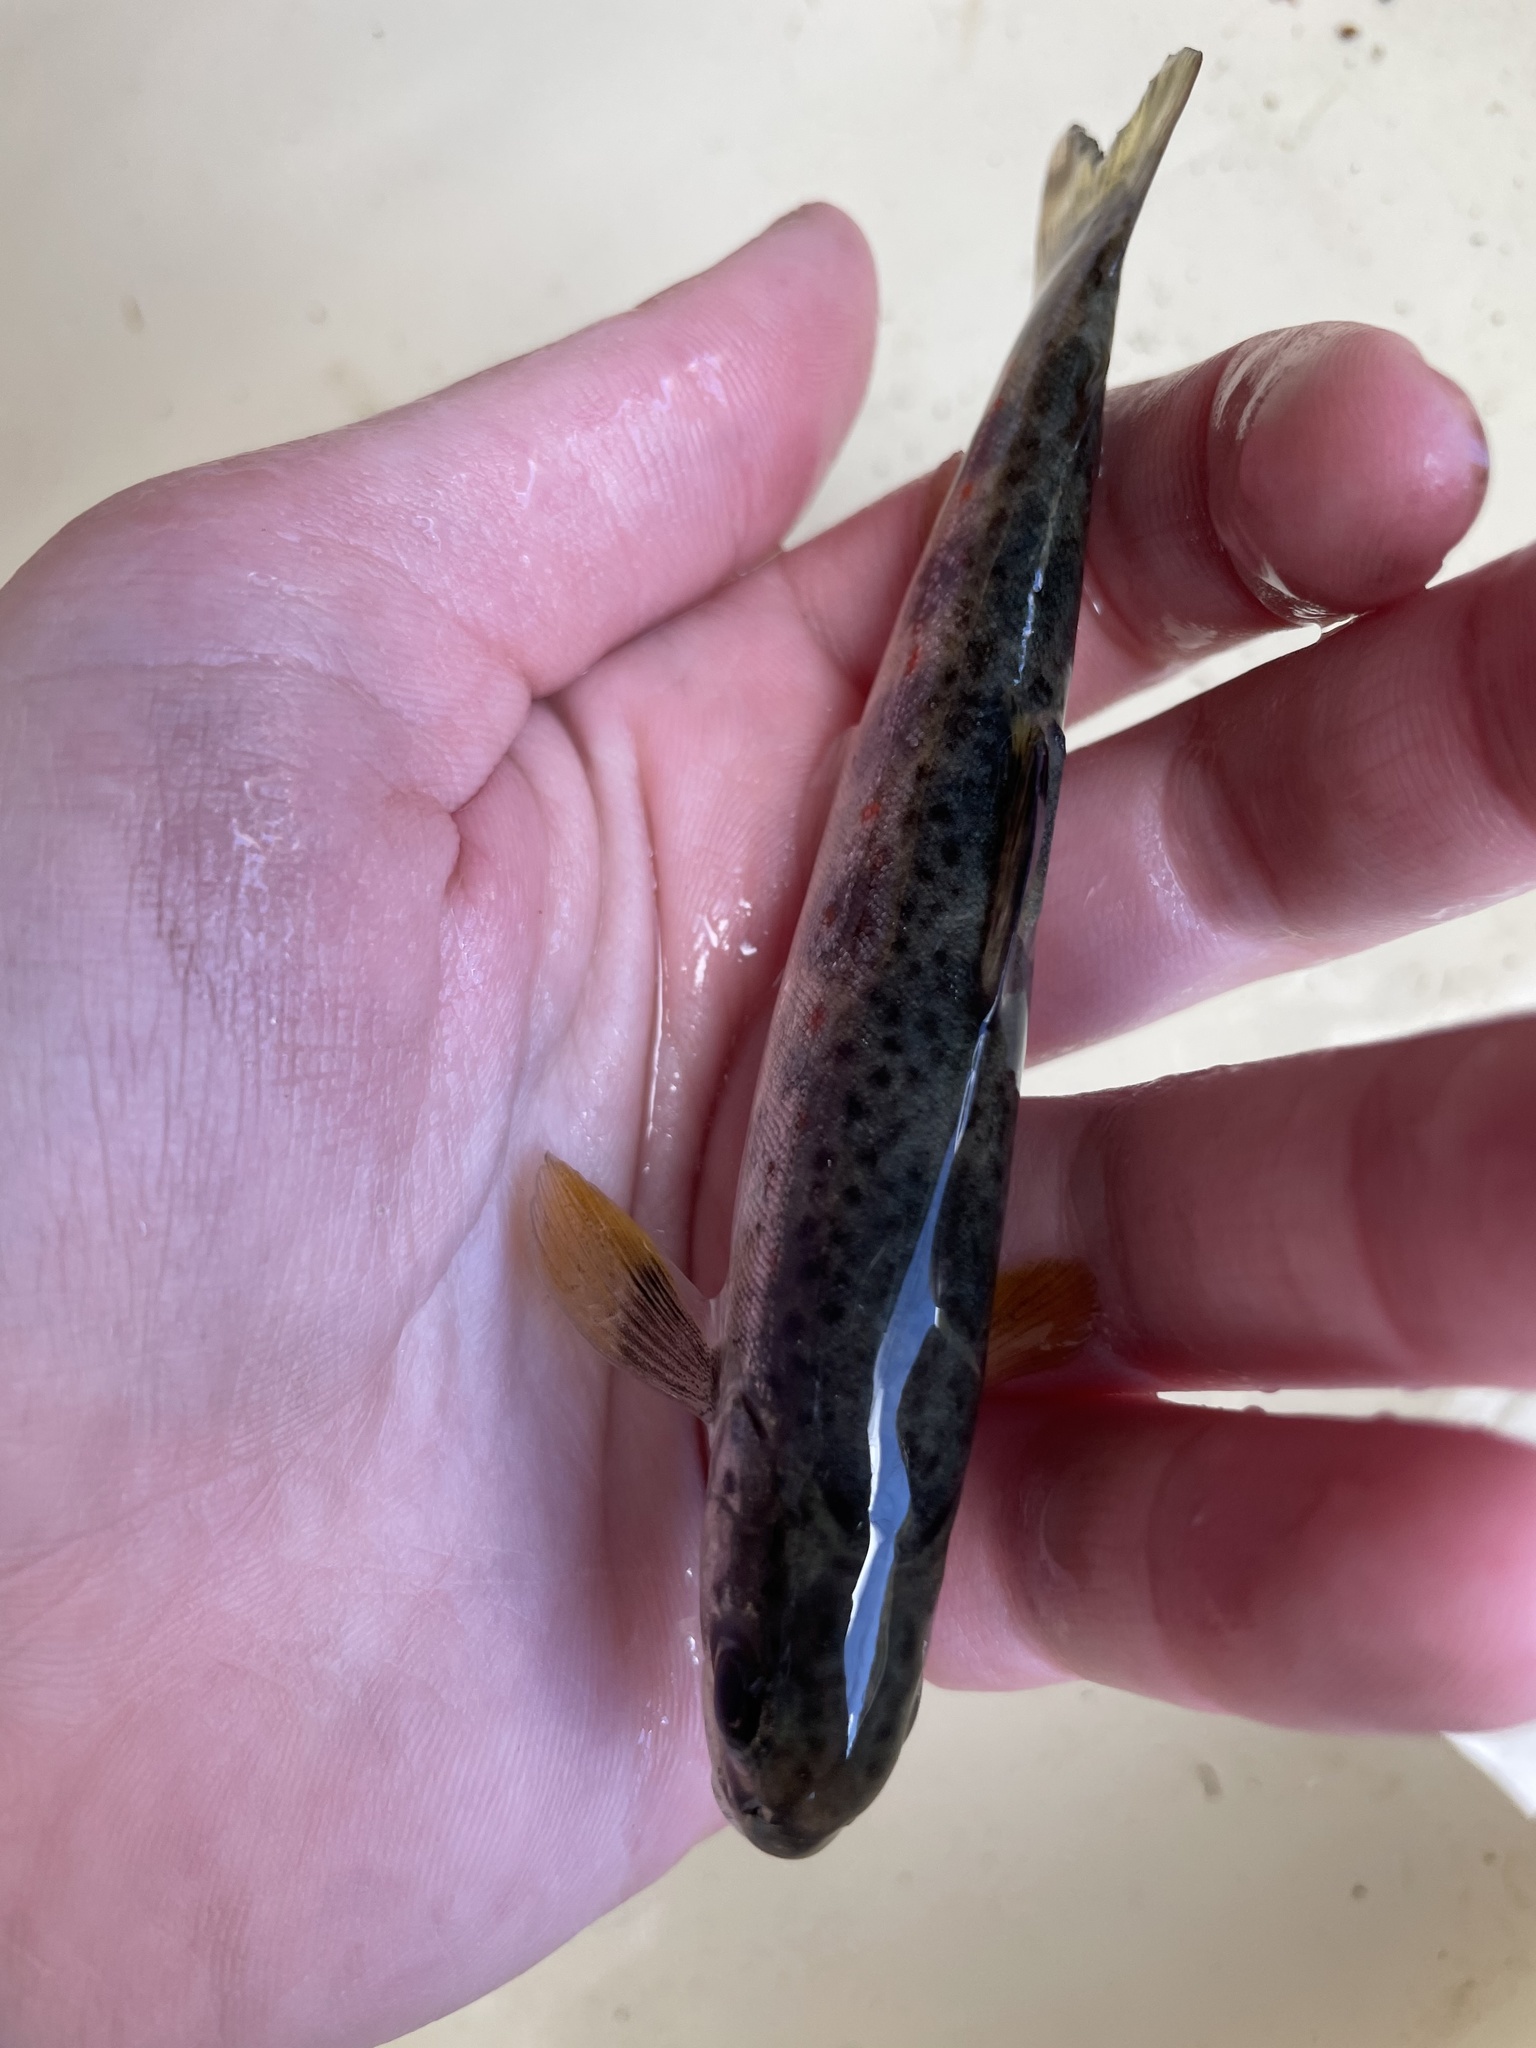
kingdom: Animalia
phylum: Chordata
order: Salmoniformes
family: Salmonidae
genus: Salmo
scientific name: Salmo salar
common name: Atlantic salmon
